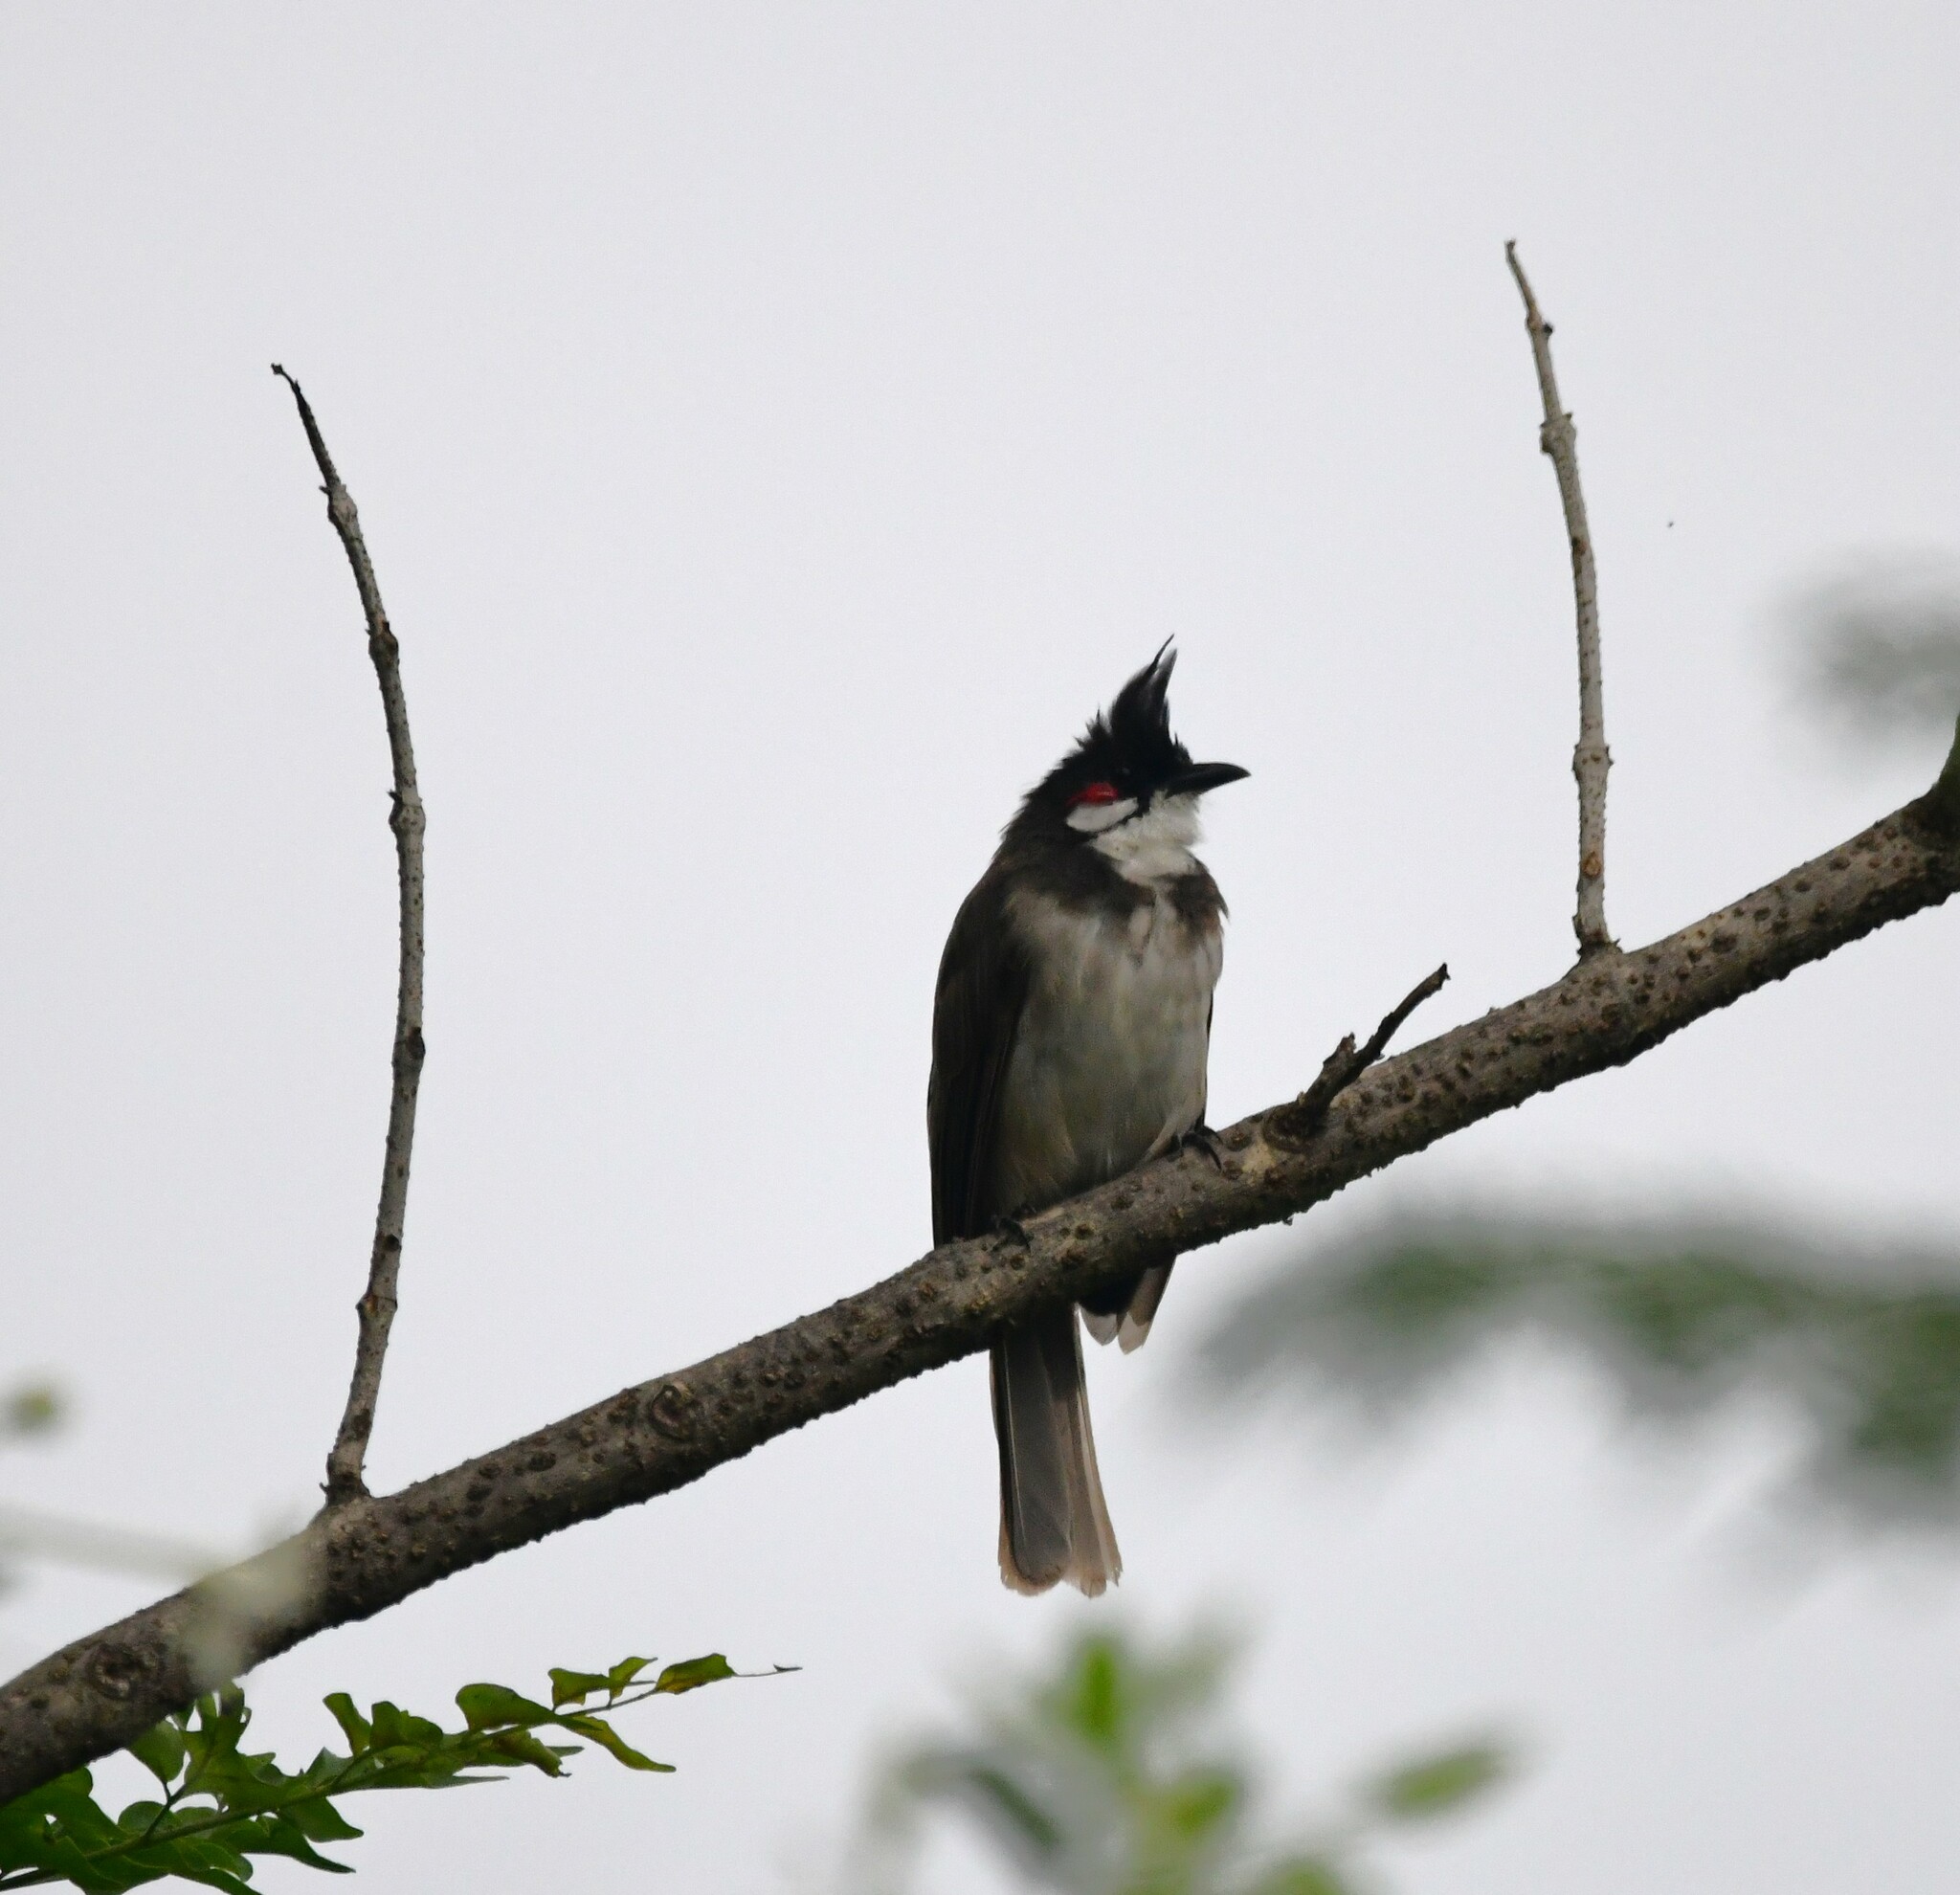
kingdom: Animalia
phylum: Chordata
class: Aves
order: Passeriformes
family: Pycnonotidae
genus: Pycnonotus
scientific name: Pycnonotus jocosus
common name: Red-whiskered bulbul
